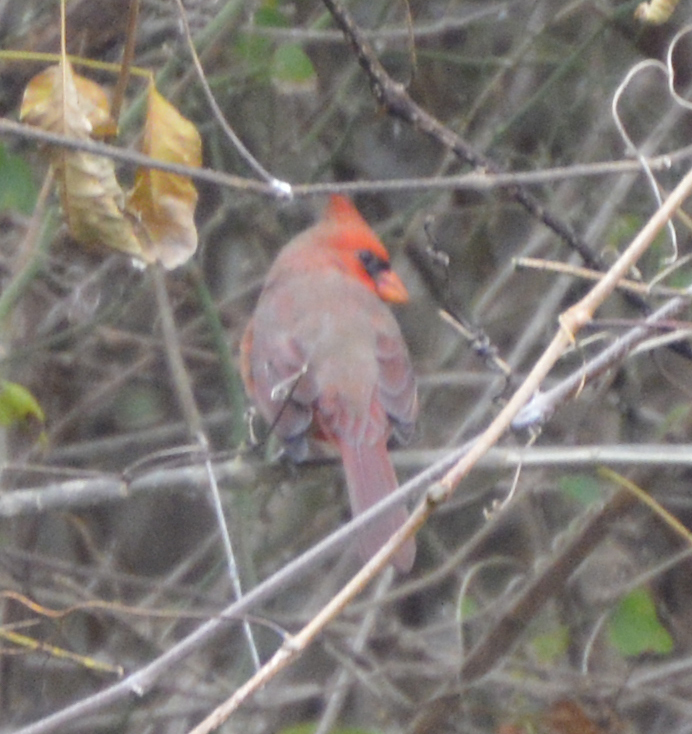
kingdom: Animalia
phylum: Chordata
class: Aves
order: Passeriformes
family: Cardinalidae
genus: Cardinalis
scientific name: Cardinalis cardinalis
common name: Northern cardinal
